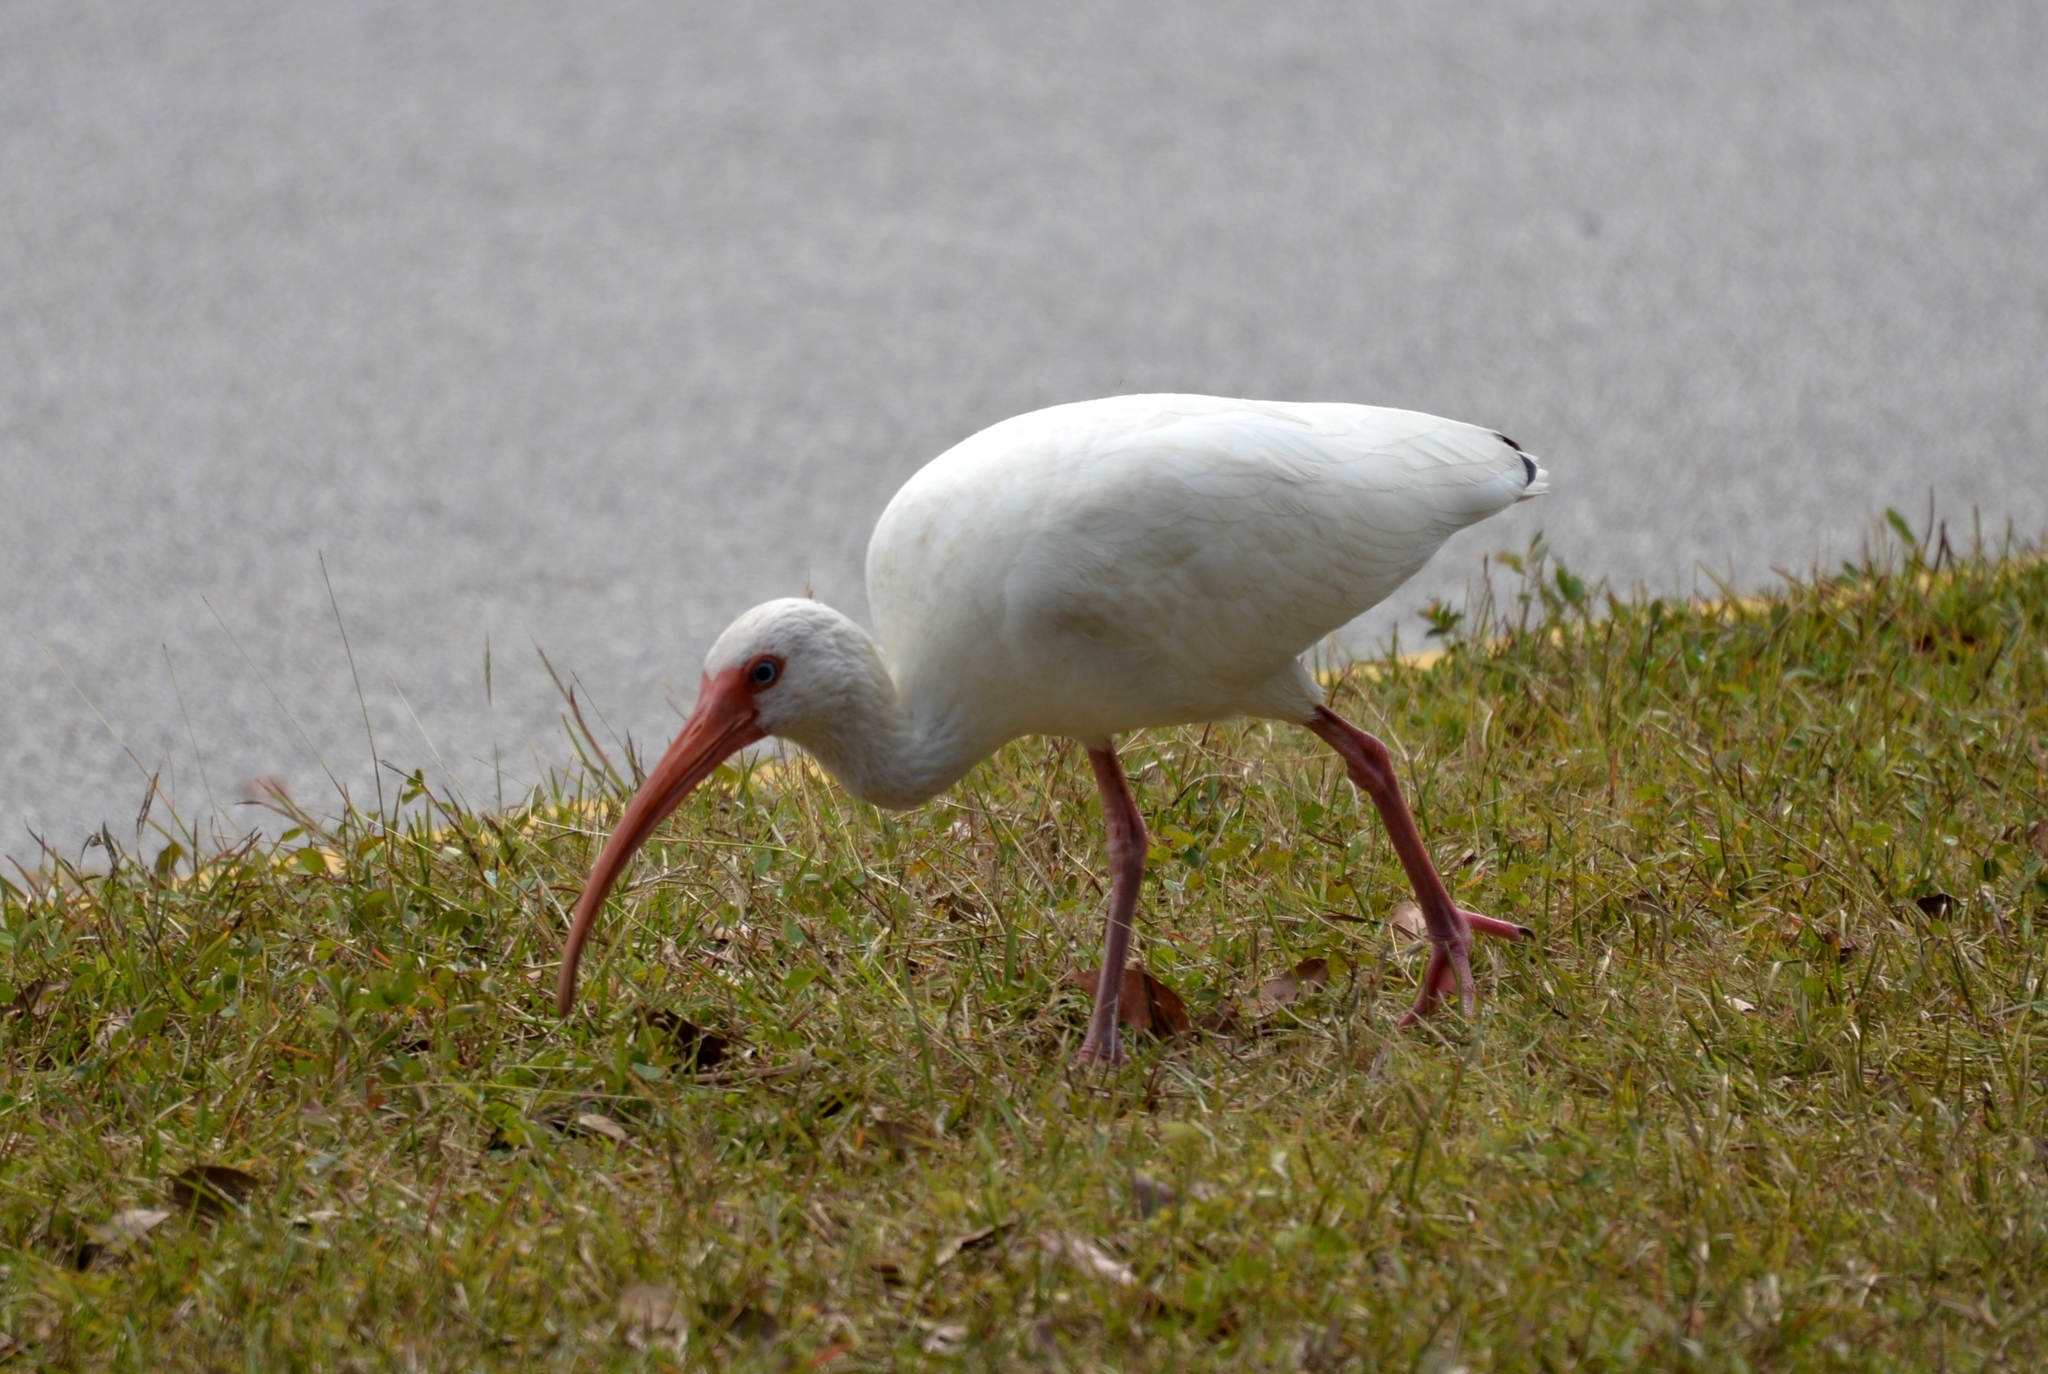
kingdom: Animalia
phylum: Chordata
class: Aves
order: Pelecaniformes
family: Threskiornithidae
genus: Eudocimus
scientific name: Eudocimus albus
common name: White ibis
